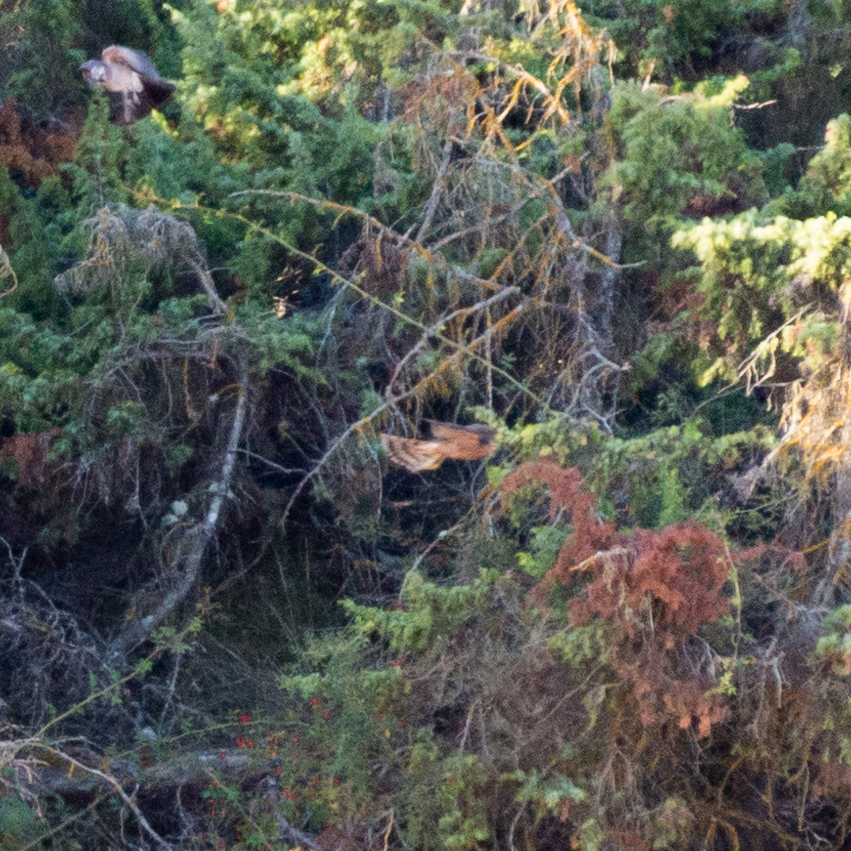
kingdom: Animalia
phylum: Chordata
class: Aves
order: Accipitriformes
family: Accipitridae
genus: Accipiter
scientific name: Accipiter nisus
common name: Eurasian sparrowhawk
